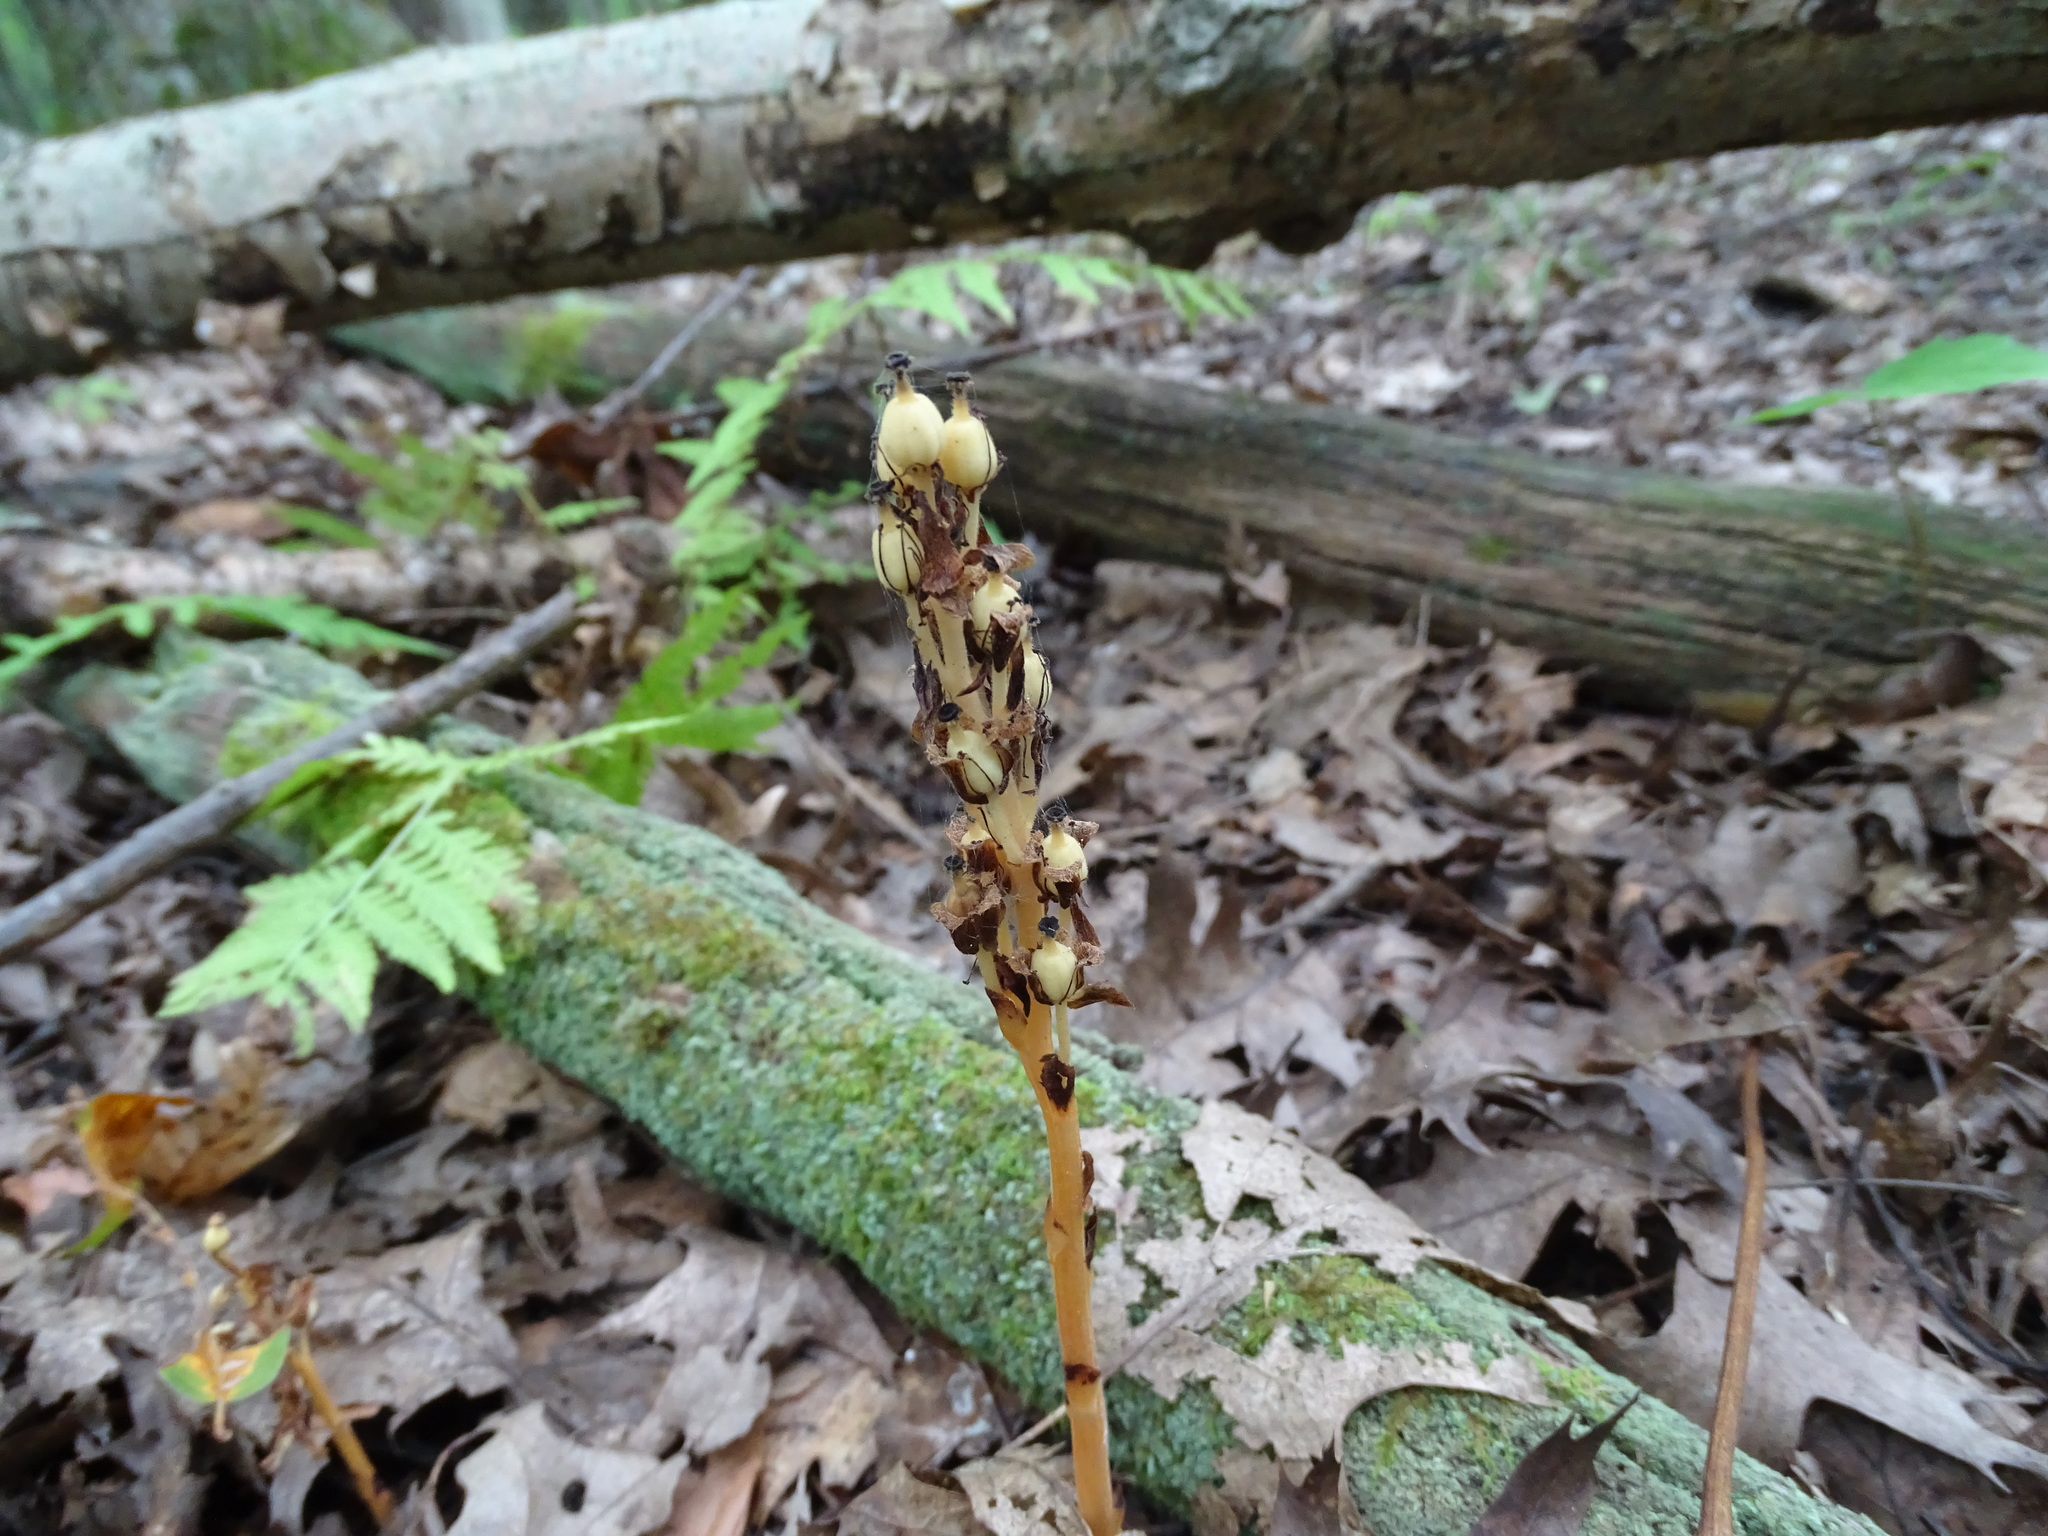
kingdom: Plantae
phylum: Tracheophyta
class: Magnoliopsida
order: Ericales
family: Ericaceae
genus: Hypopitys
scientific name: Hypopitys monotropa
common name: Yellow bird's-nest
